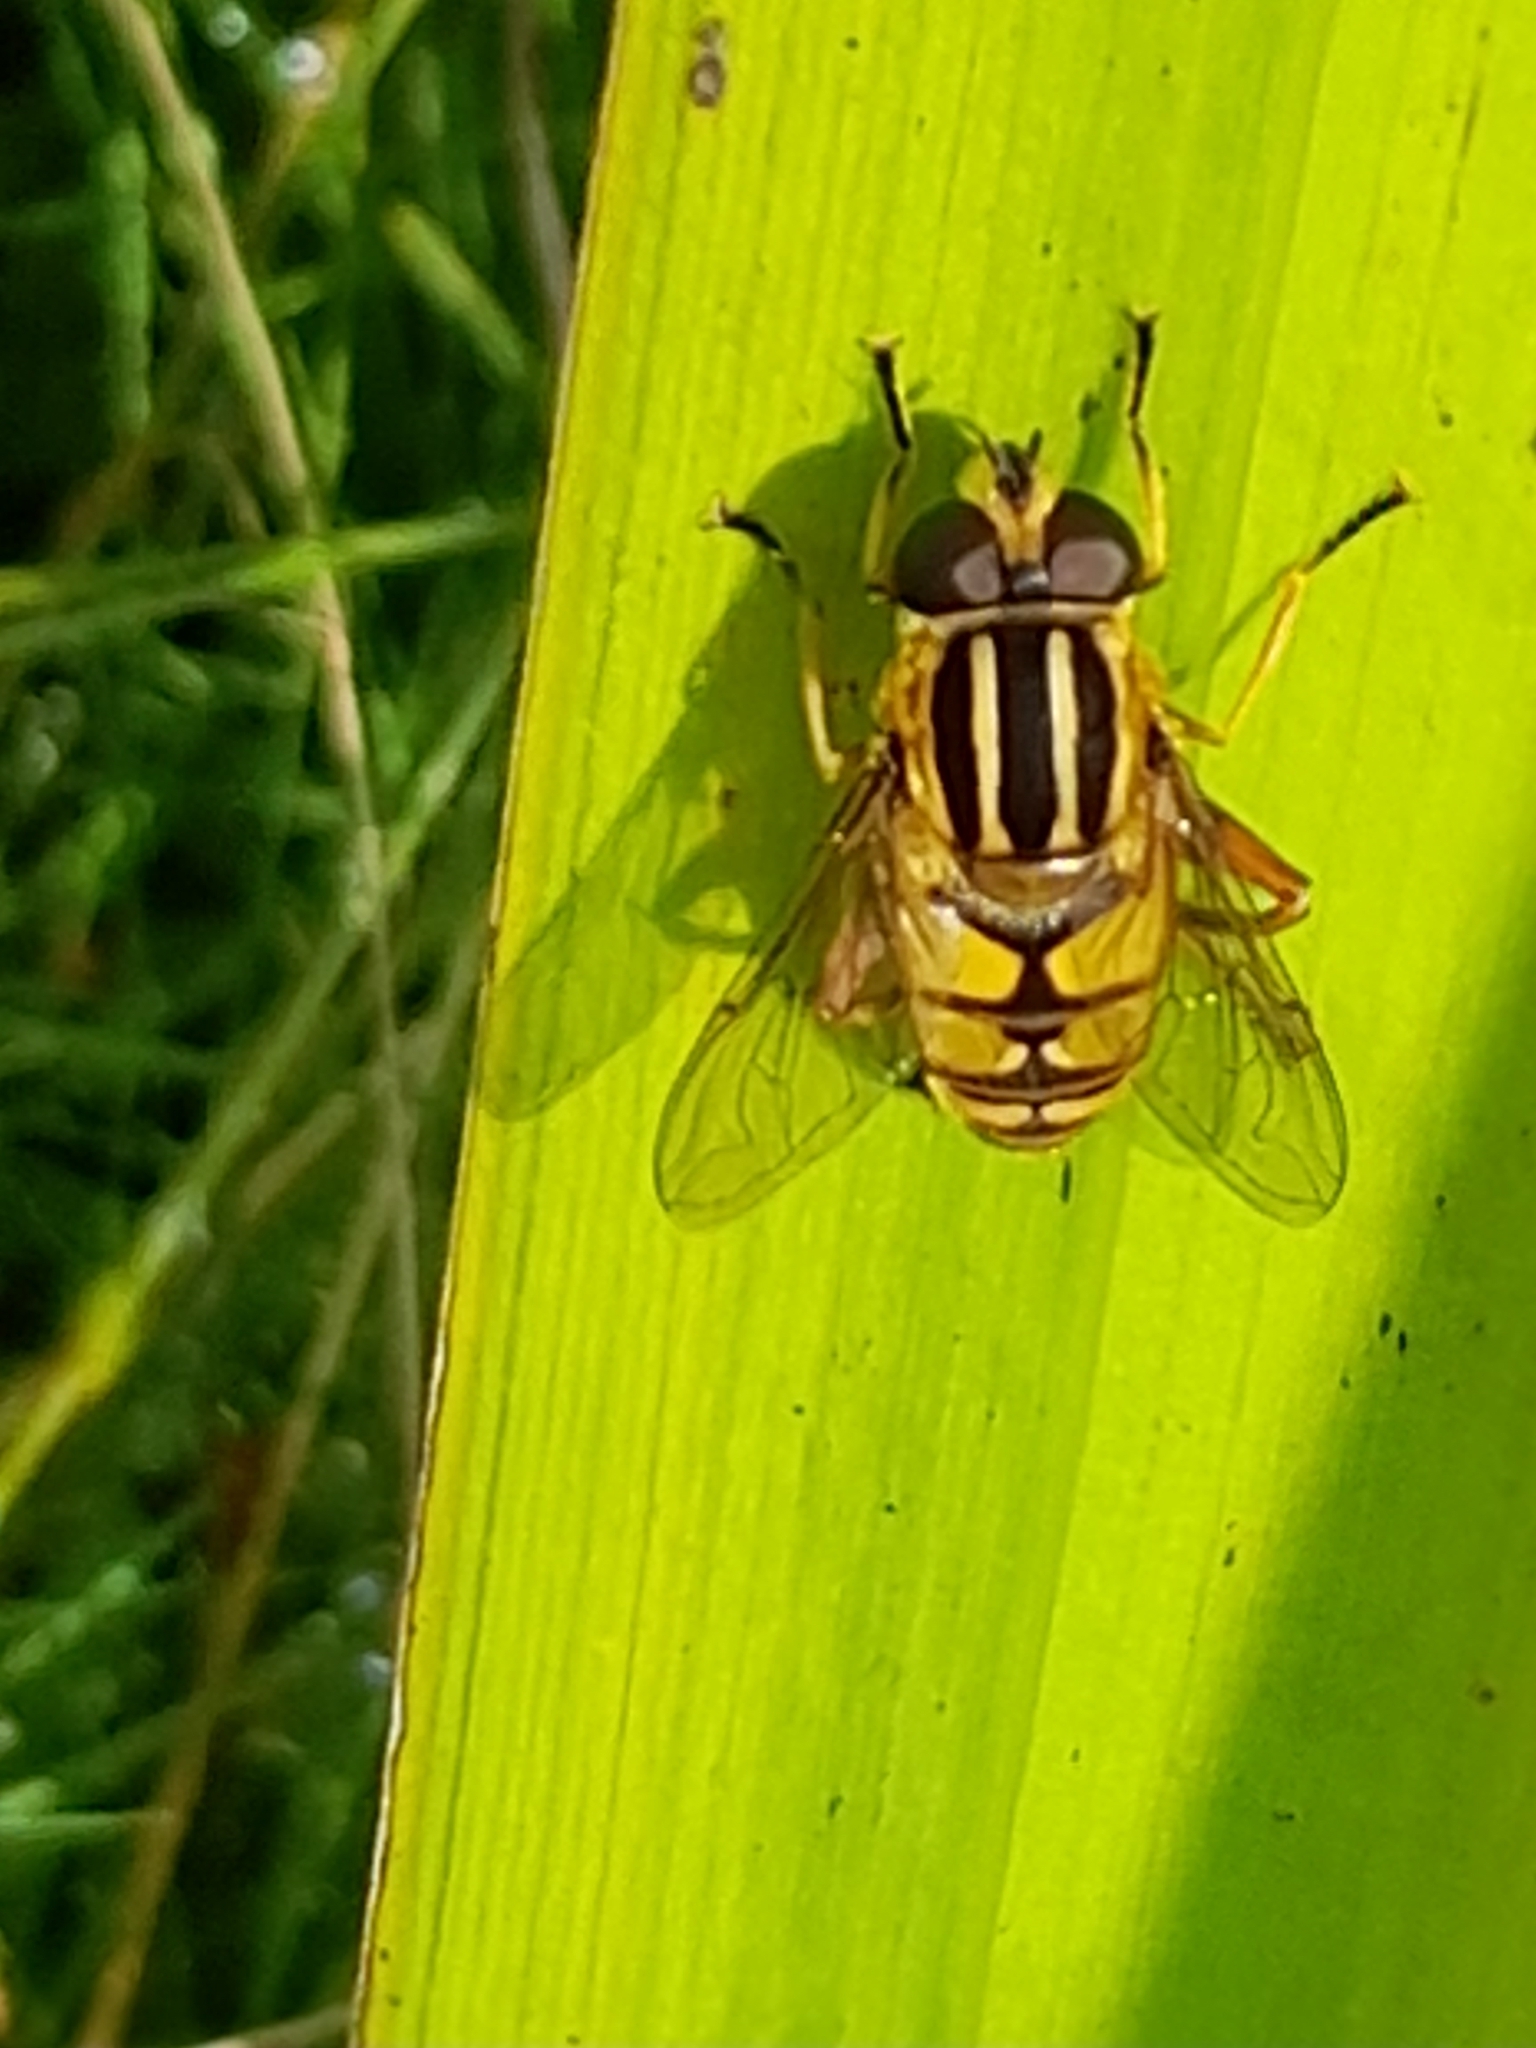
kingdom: Animalia
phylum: Arthropoda
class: Insecta
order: Diptera
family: Syrphidae
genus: Helophilus
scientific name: Helophilus pendulus
